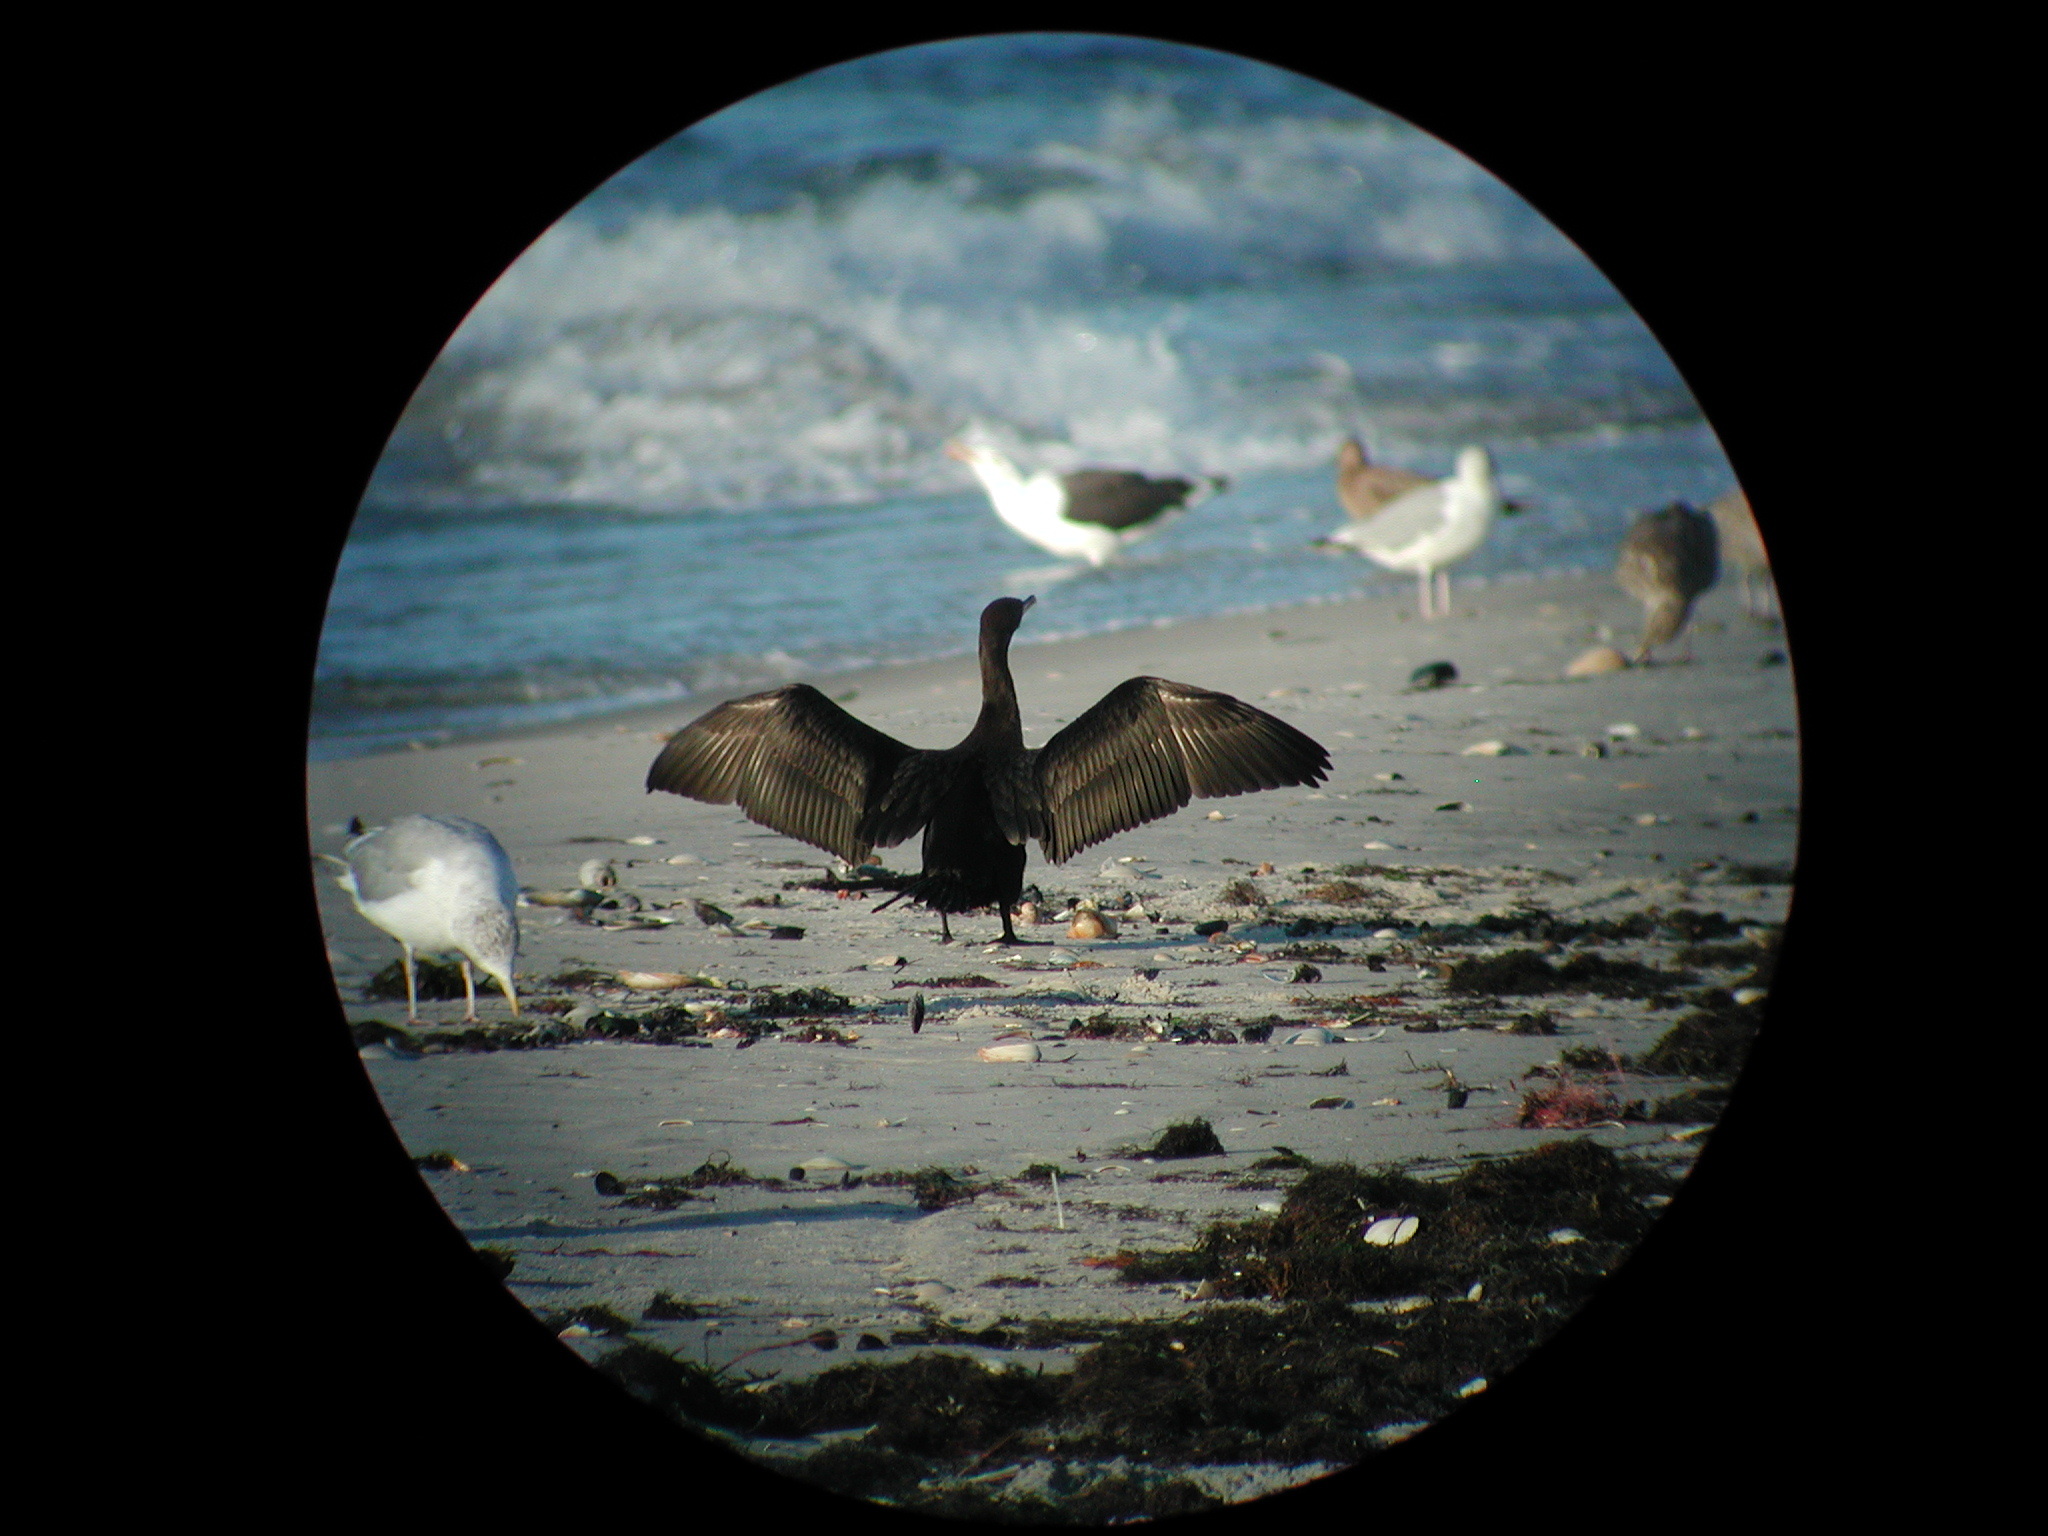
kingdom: Animalia
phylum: Chordata
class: Aves
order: Suliformes
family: Phalacrocoracidae
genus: Phalacrocorax
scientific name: Phalacrocorax auritus
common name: Double-crested cormorant
